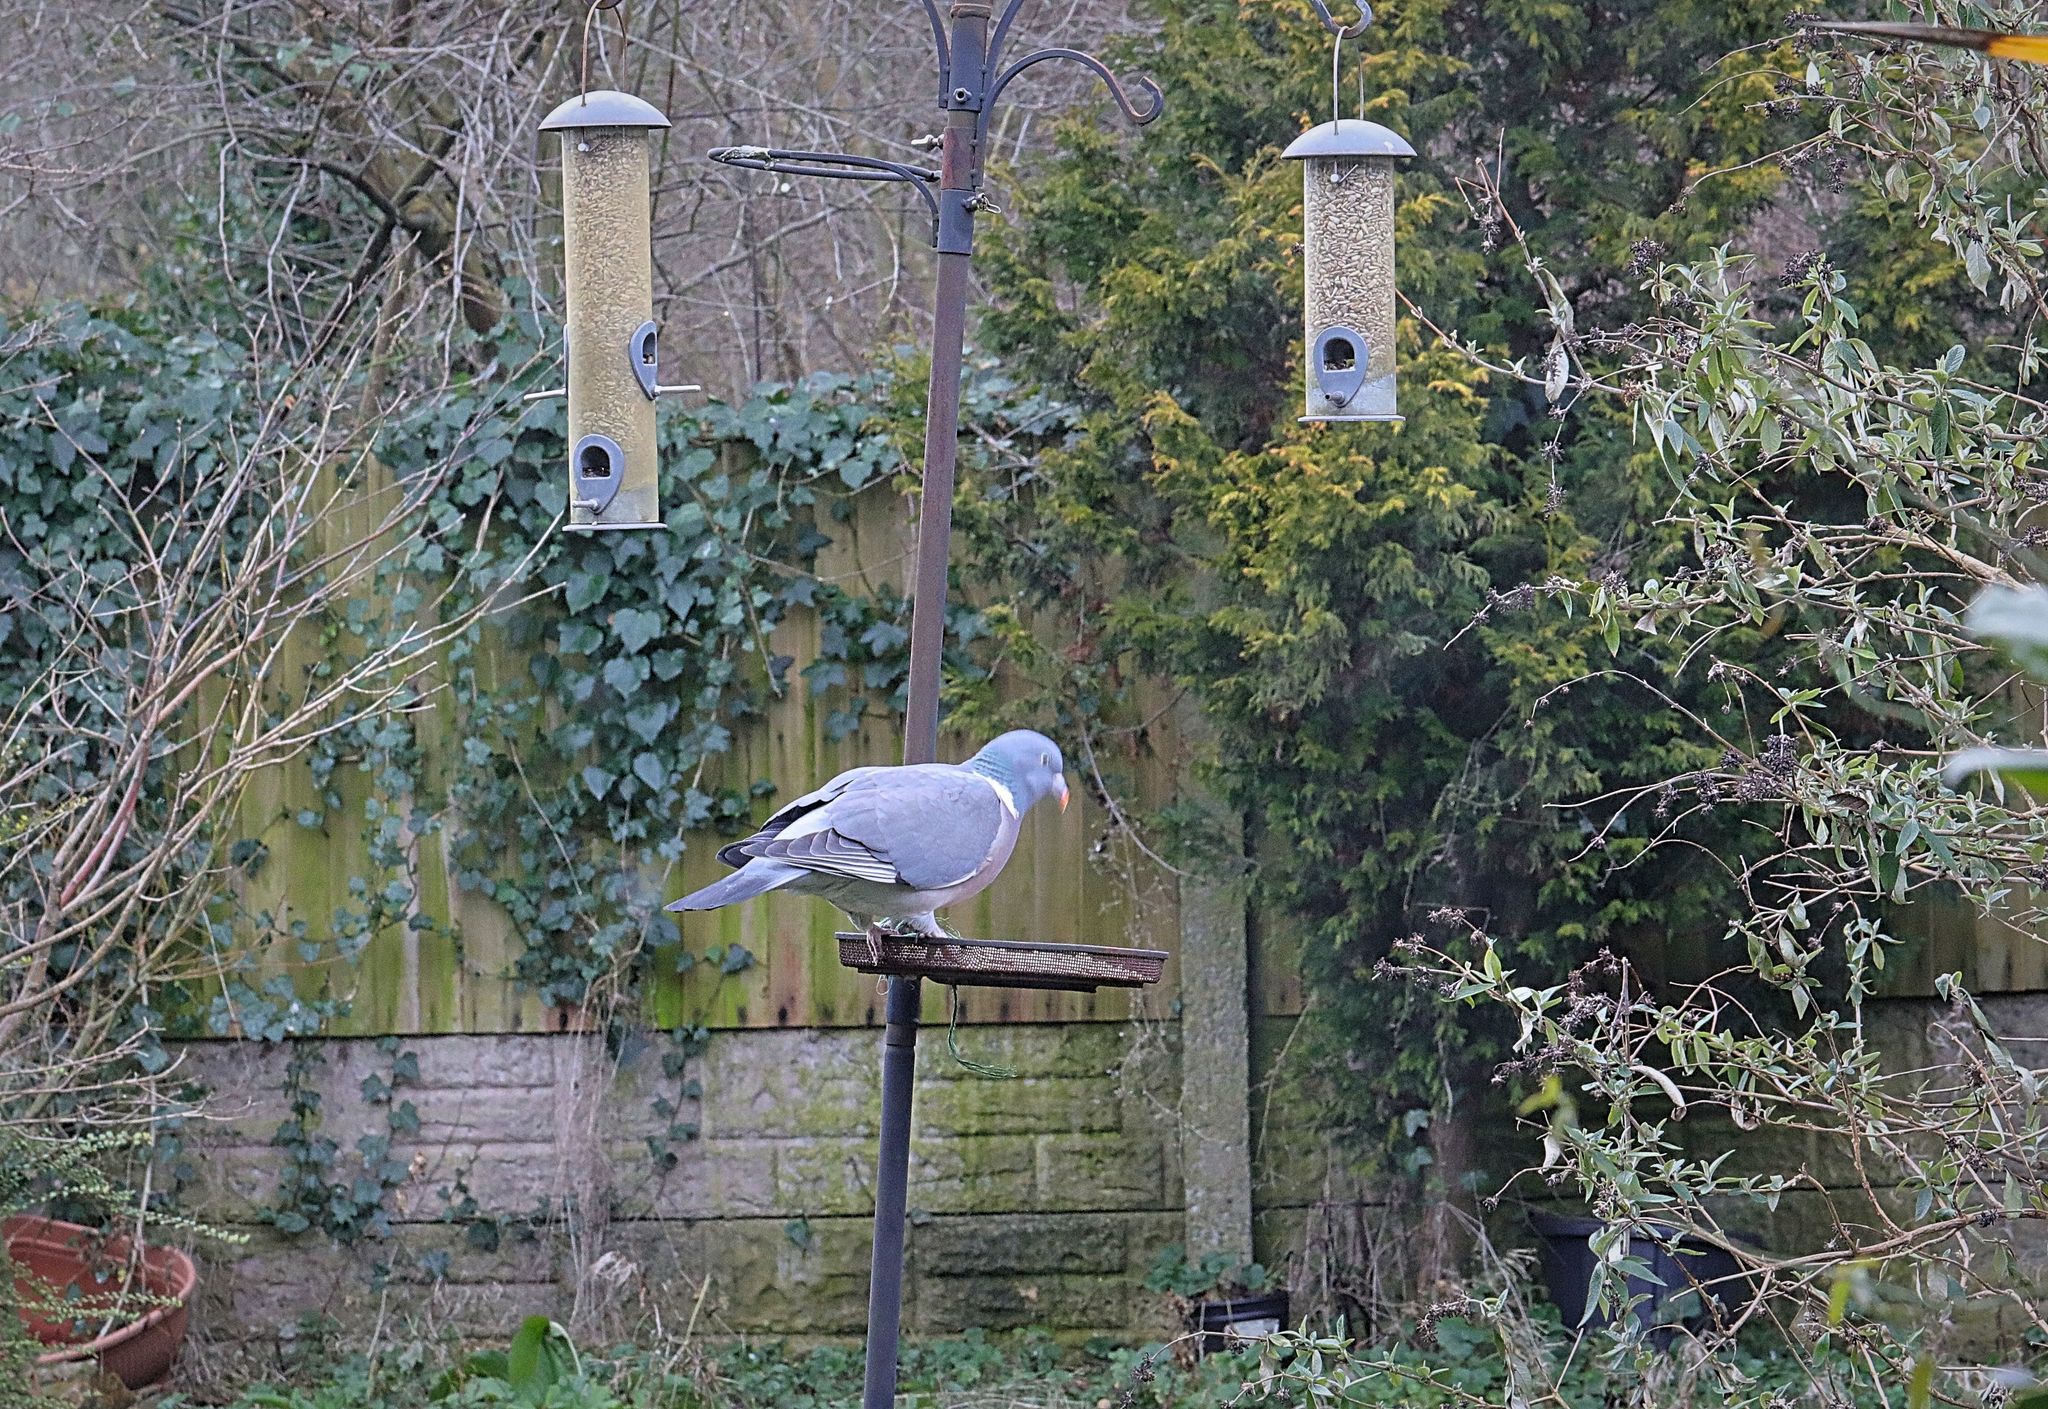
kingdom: Animalia
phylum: Chordata
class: Aves
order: Columbiformes
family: Columbidae
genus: Columba
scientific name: Columba palumbus
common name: Common wood pigeon
